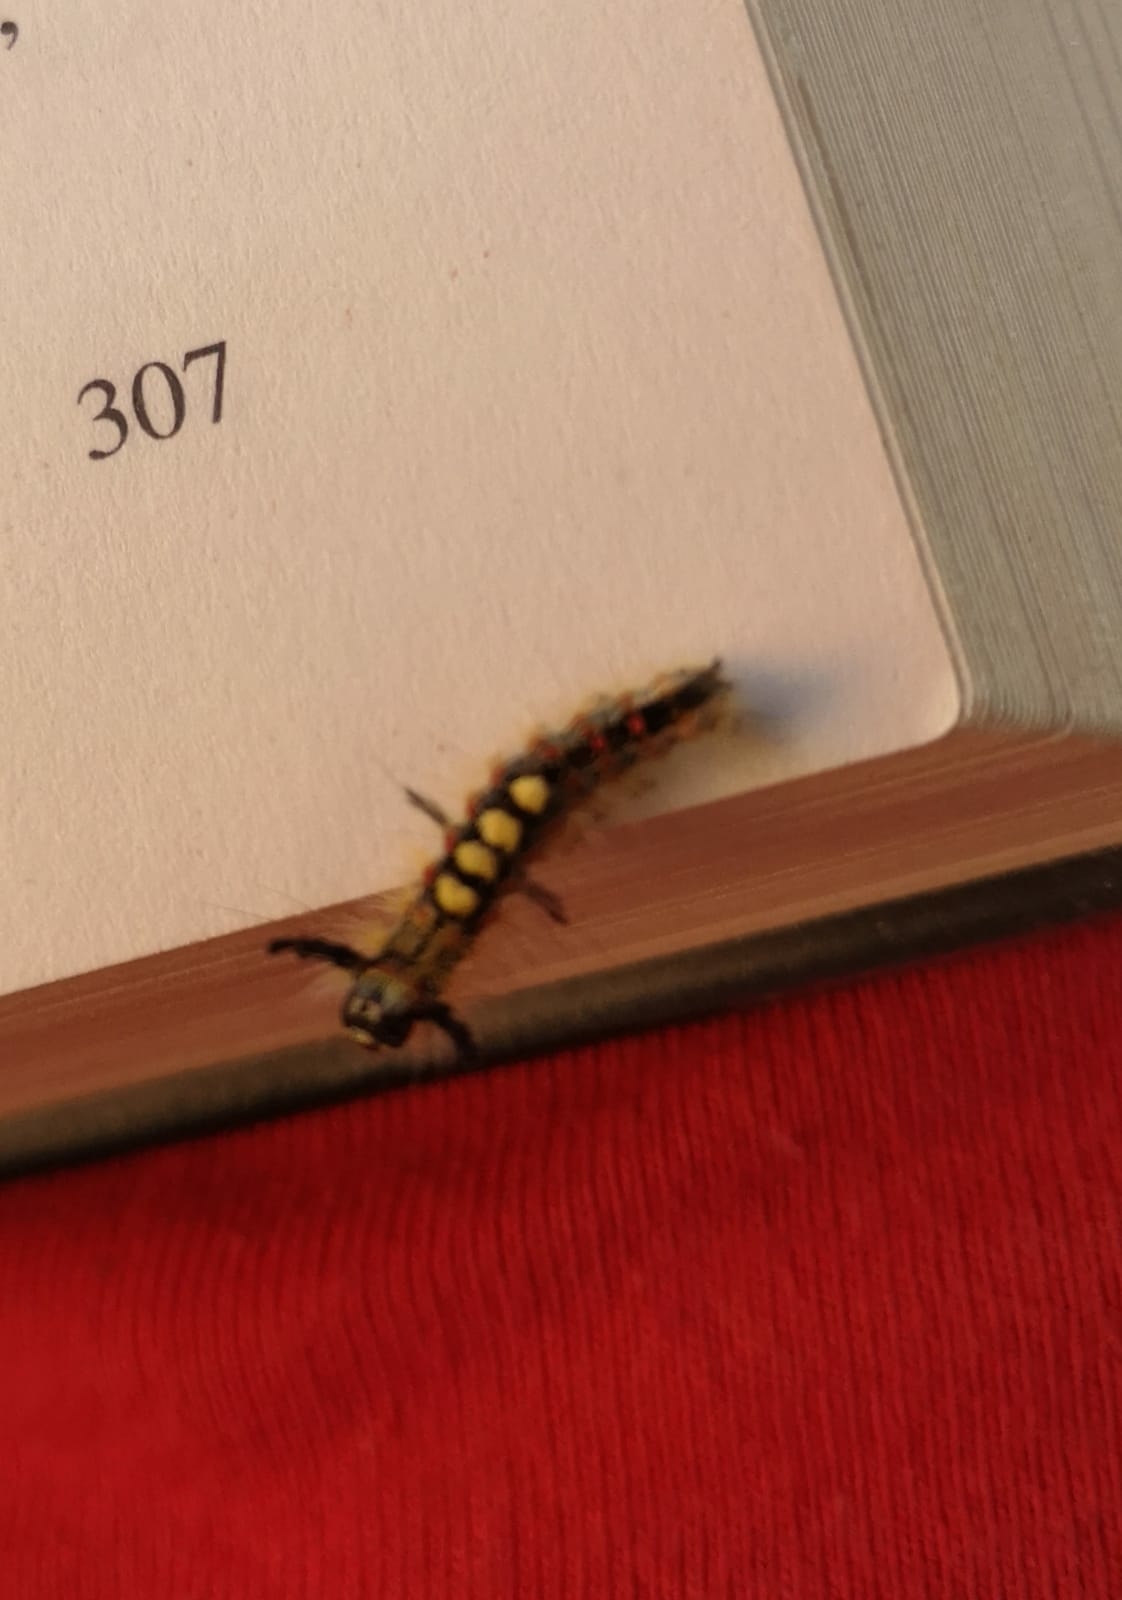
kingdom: Animalia
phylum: Arthropoda
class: Insecta
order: Lepidoptera
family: Erebidae
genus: Orgyia
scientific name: Orgyia antiqua
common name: Vapourer
